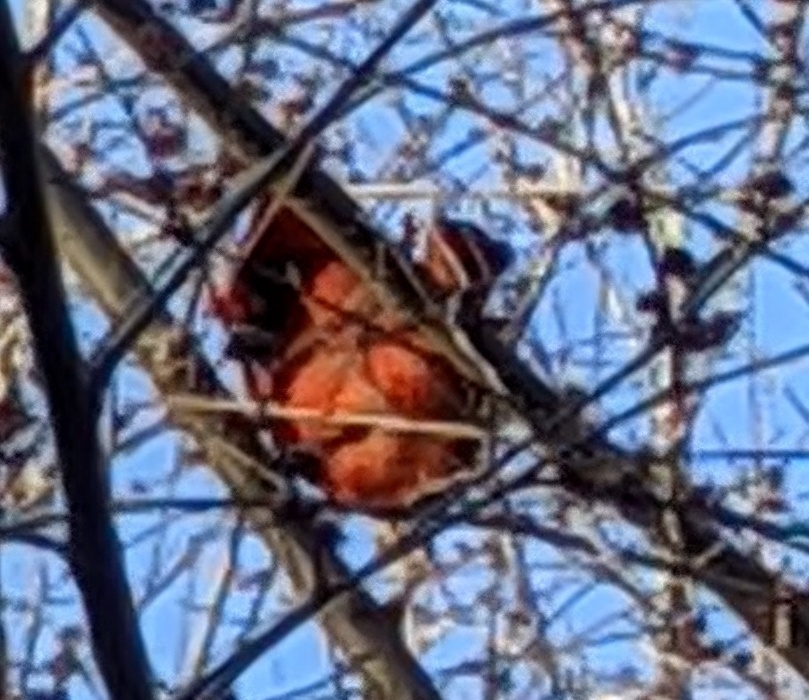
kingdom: Animalia
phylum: Chordata
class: Aves
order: Passeriformes
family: Cardinalidae
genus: Cardinalis
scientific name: Cardinalis cardinalis
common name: Northern cardinal
